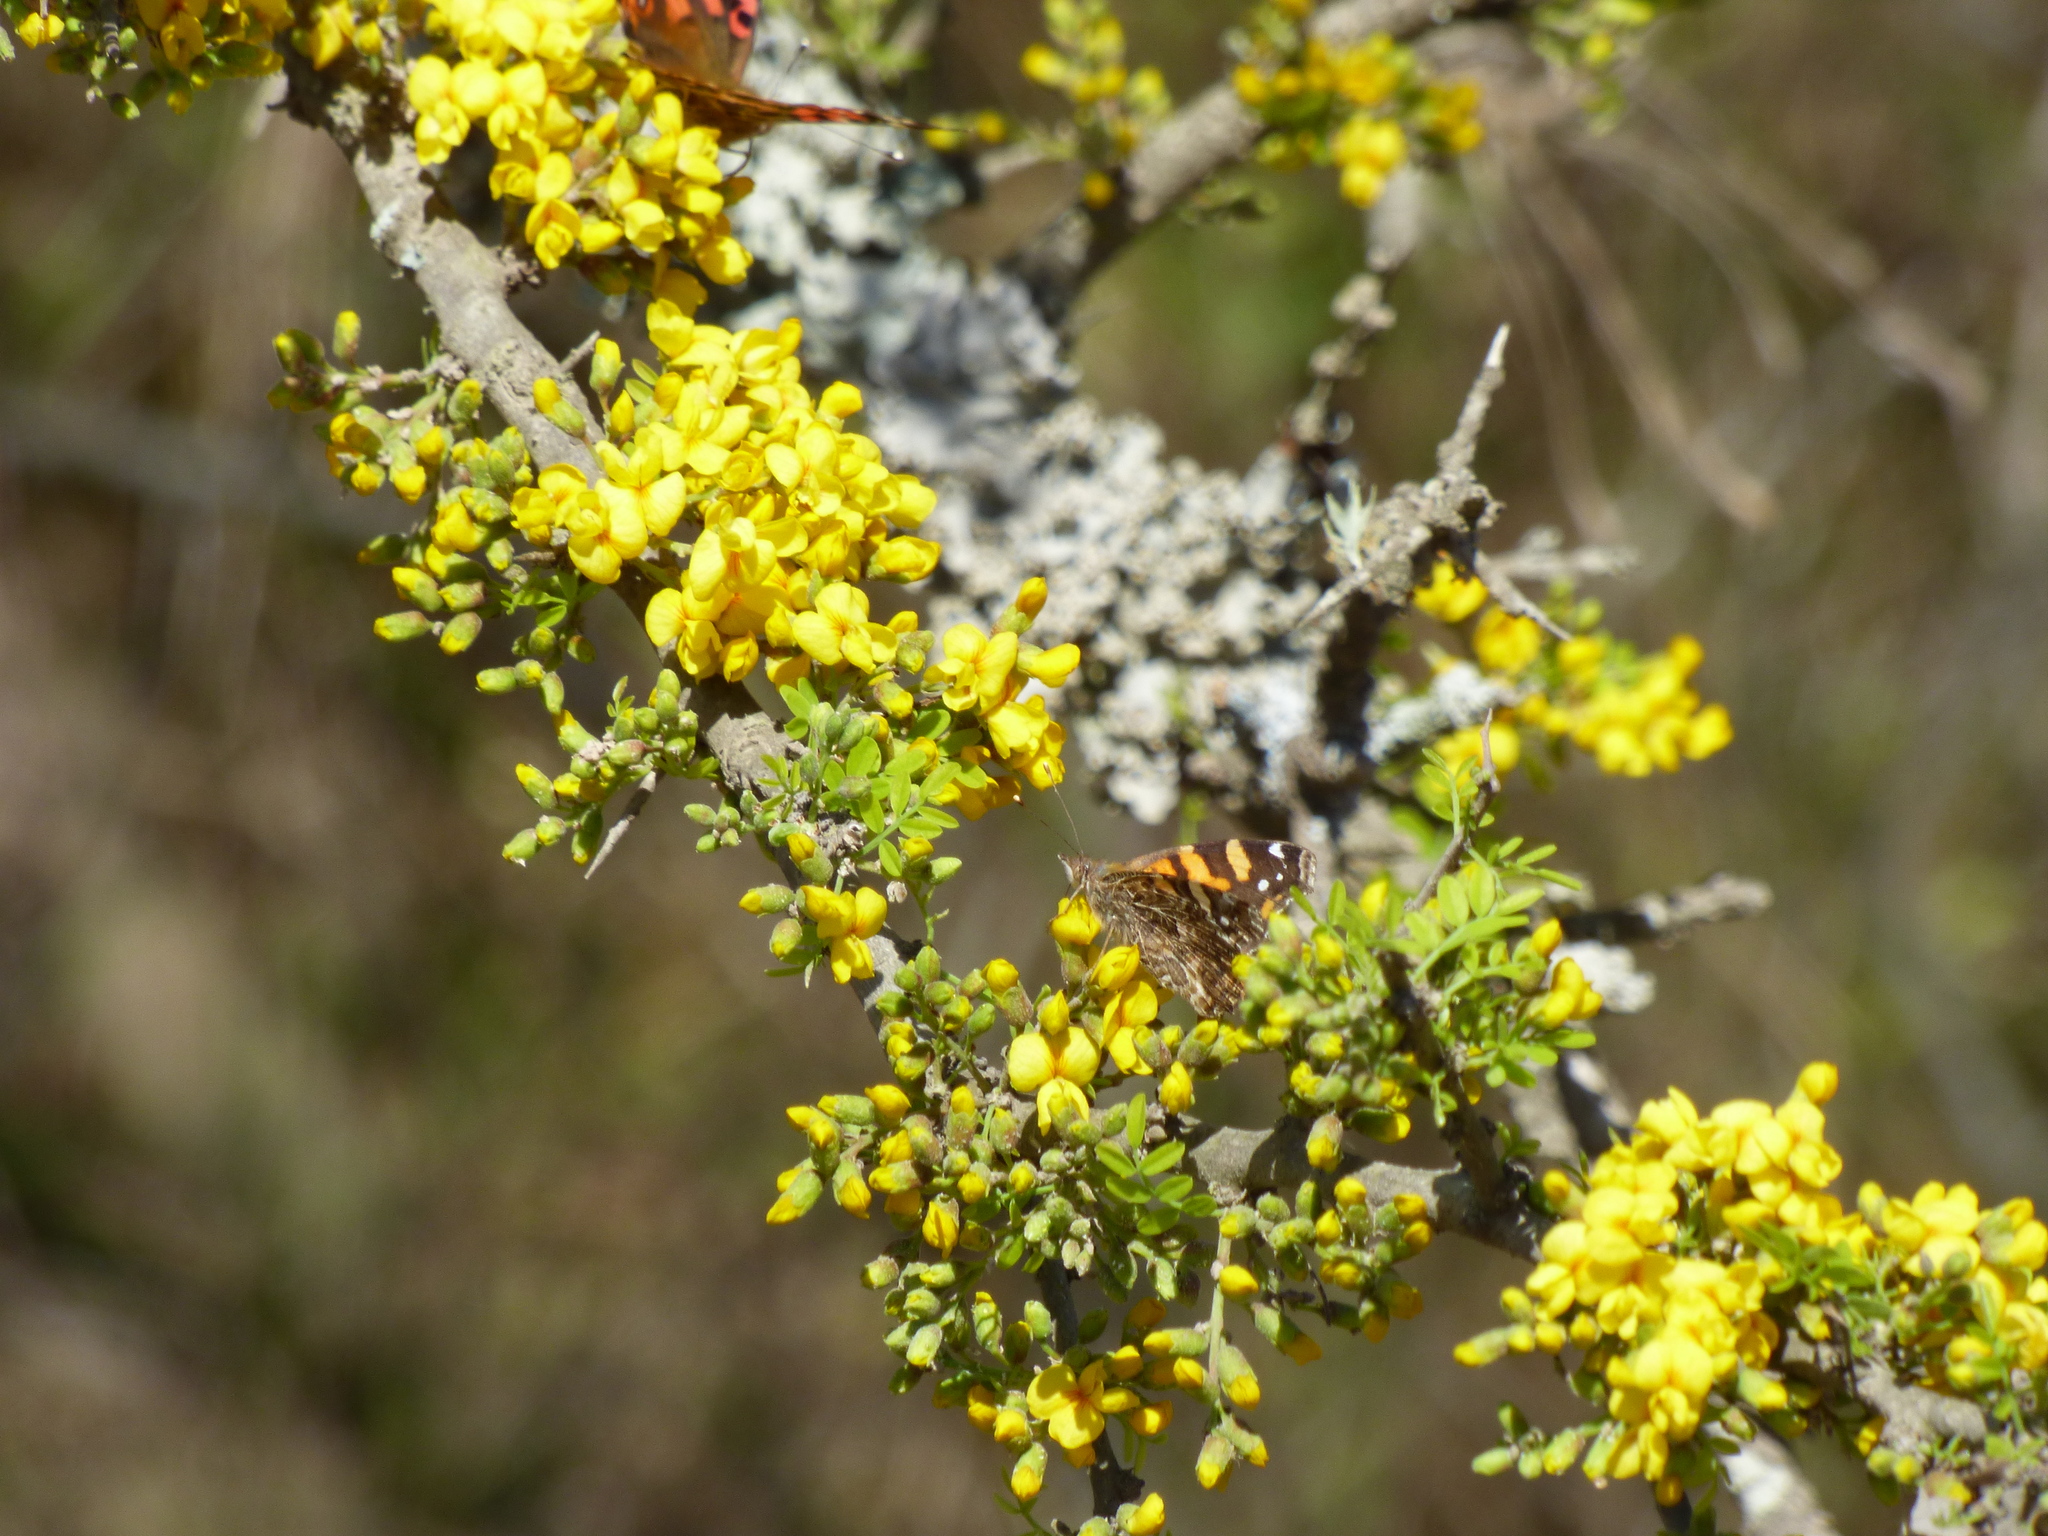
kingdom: Animalia
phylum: Arthropoda
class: Insecta
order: Lepidoptera
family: Nymphalidae
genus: Vanessa
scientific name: Vanessa carye
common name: Subtropical lady
